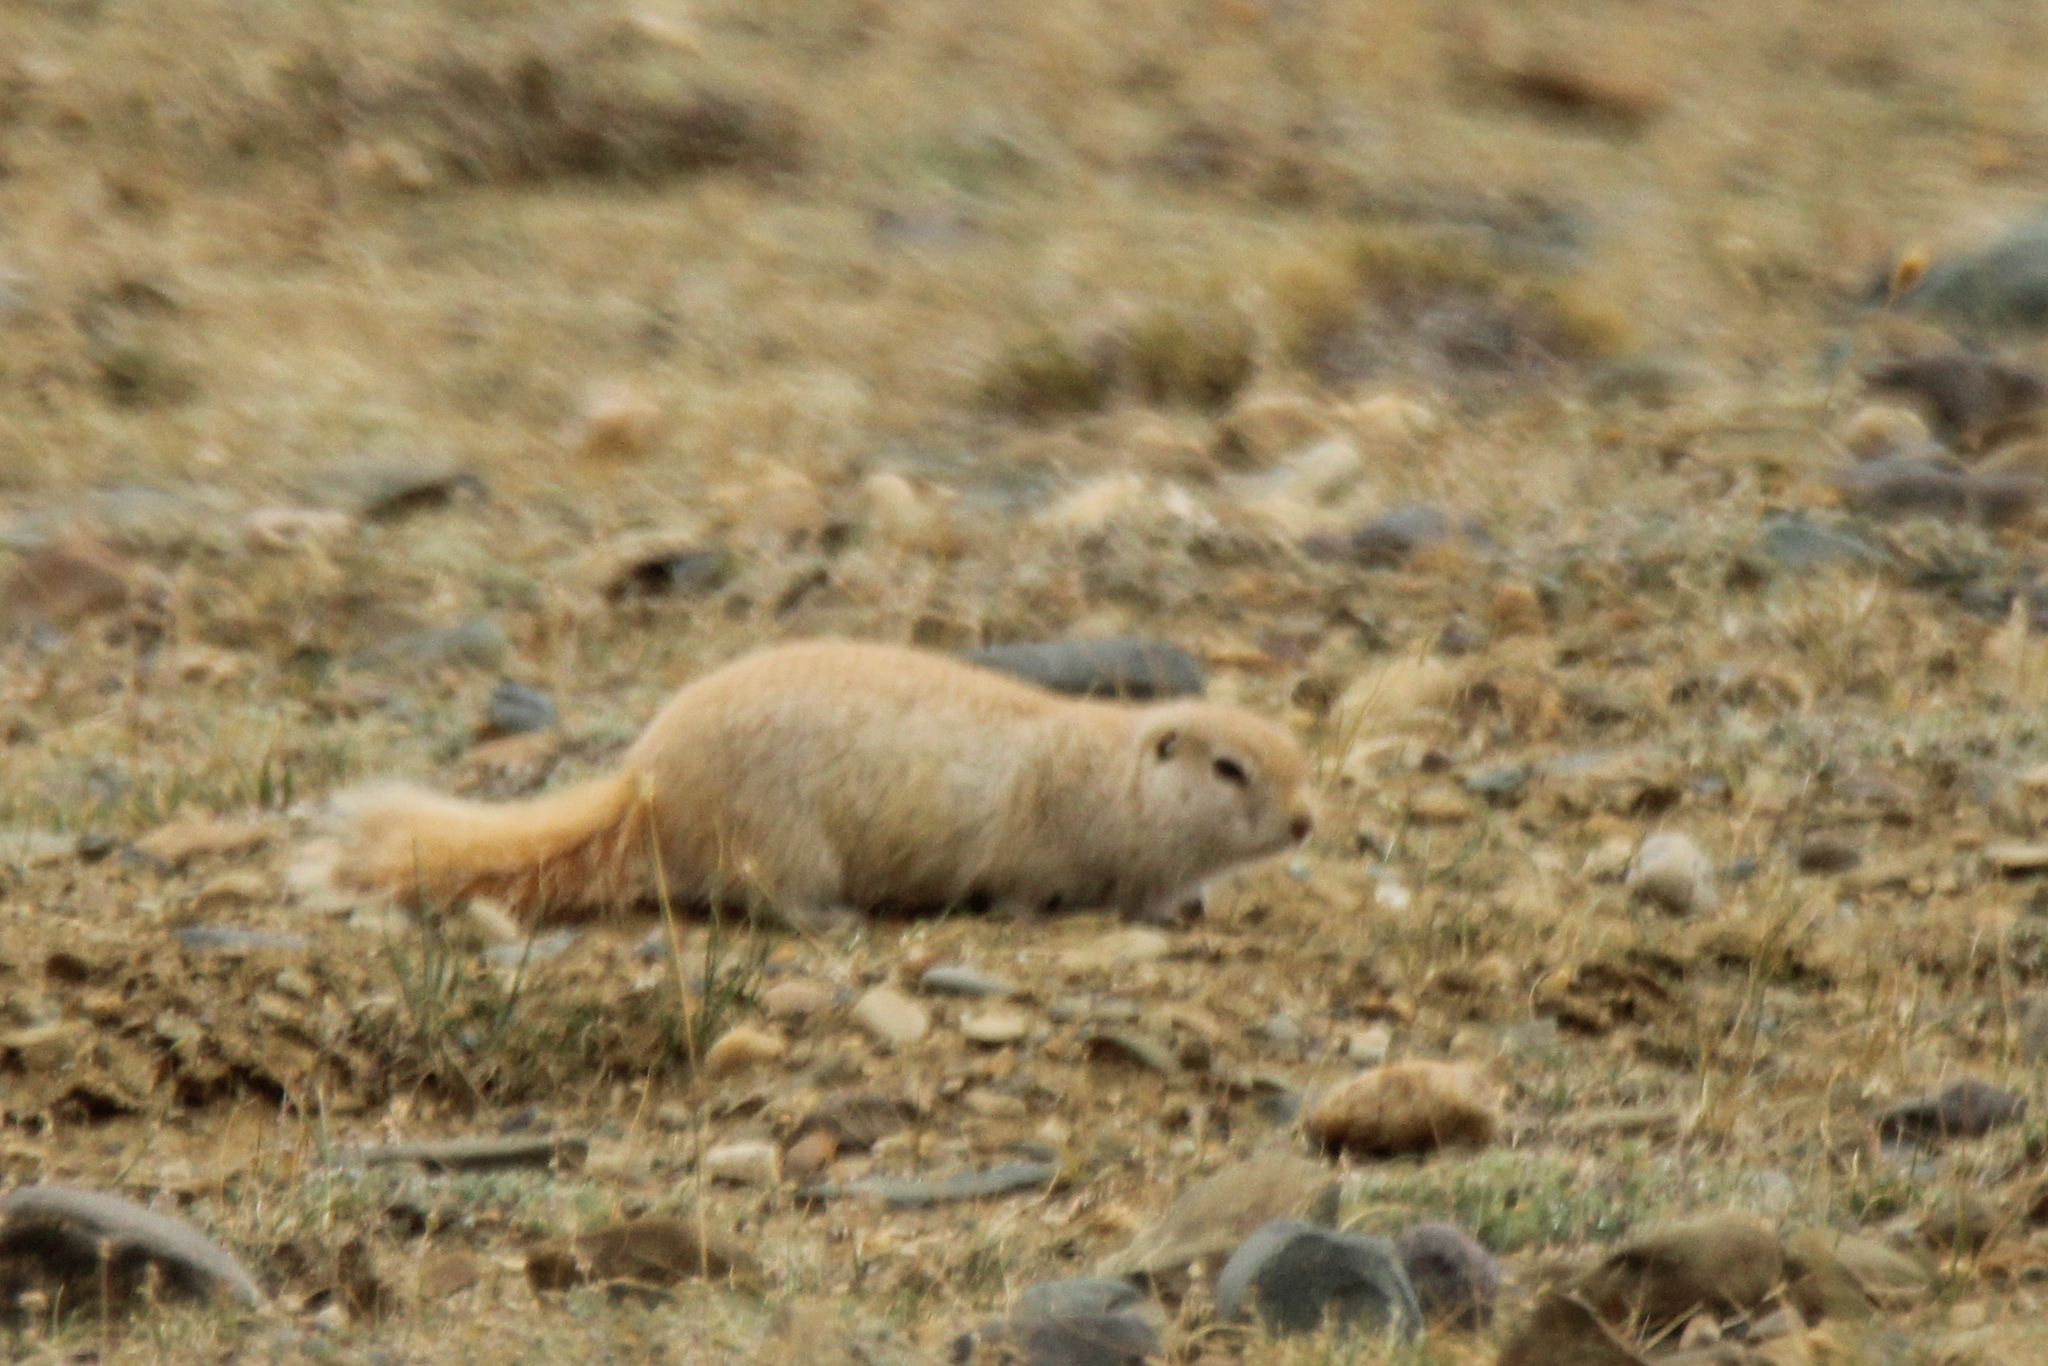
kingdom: Animalia
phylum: Chordata
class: Mammalia
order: Rodentia
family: Sciuridae
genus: Urocitellus
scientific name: Urocitellus undulatus
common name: Long-tailed ground squirrel
